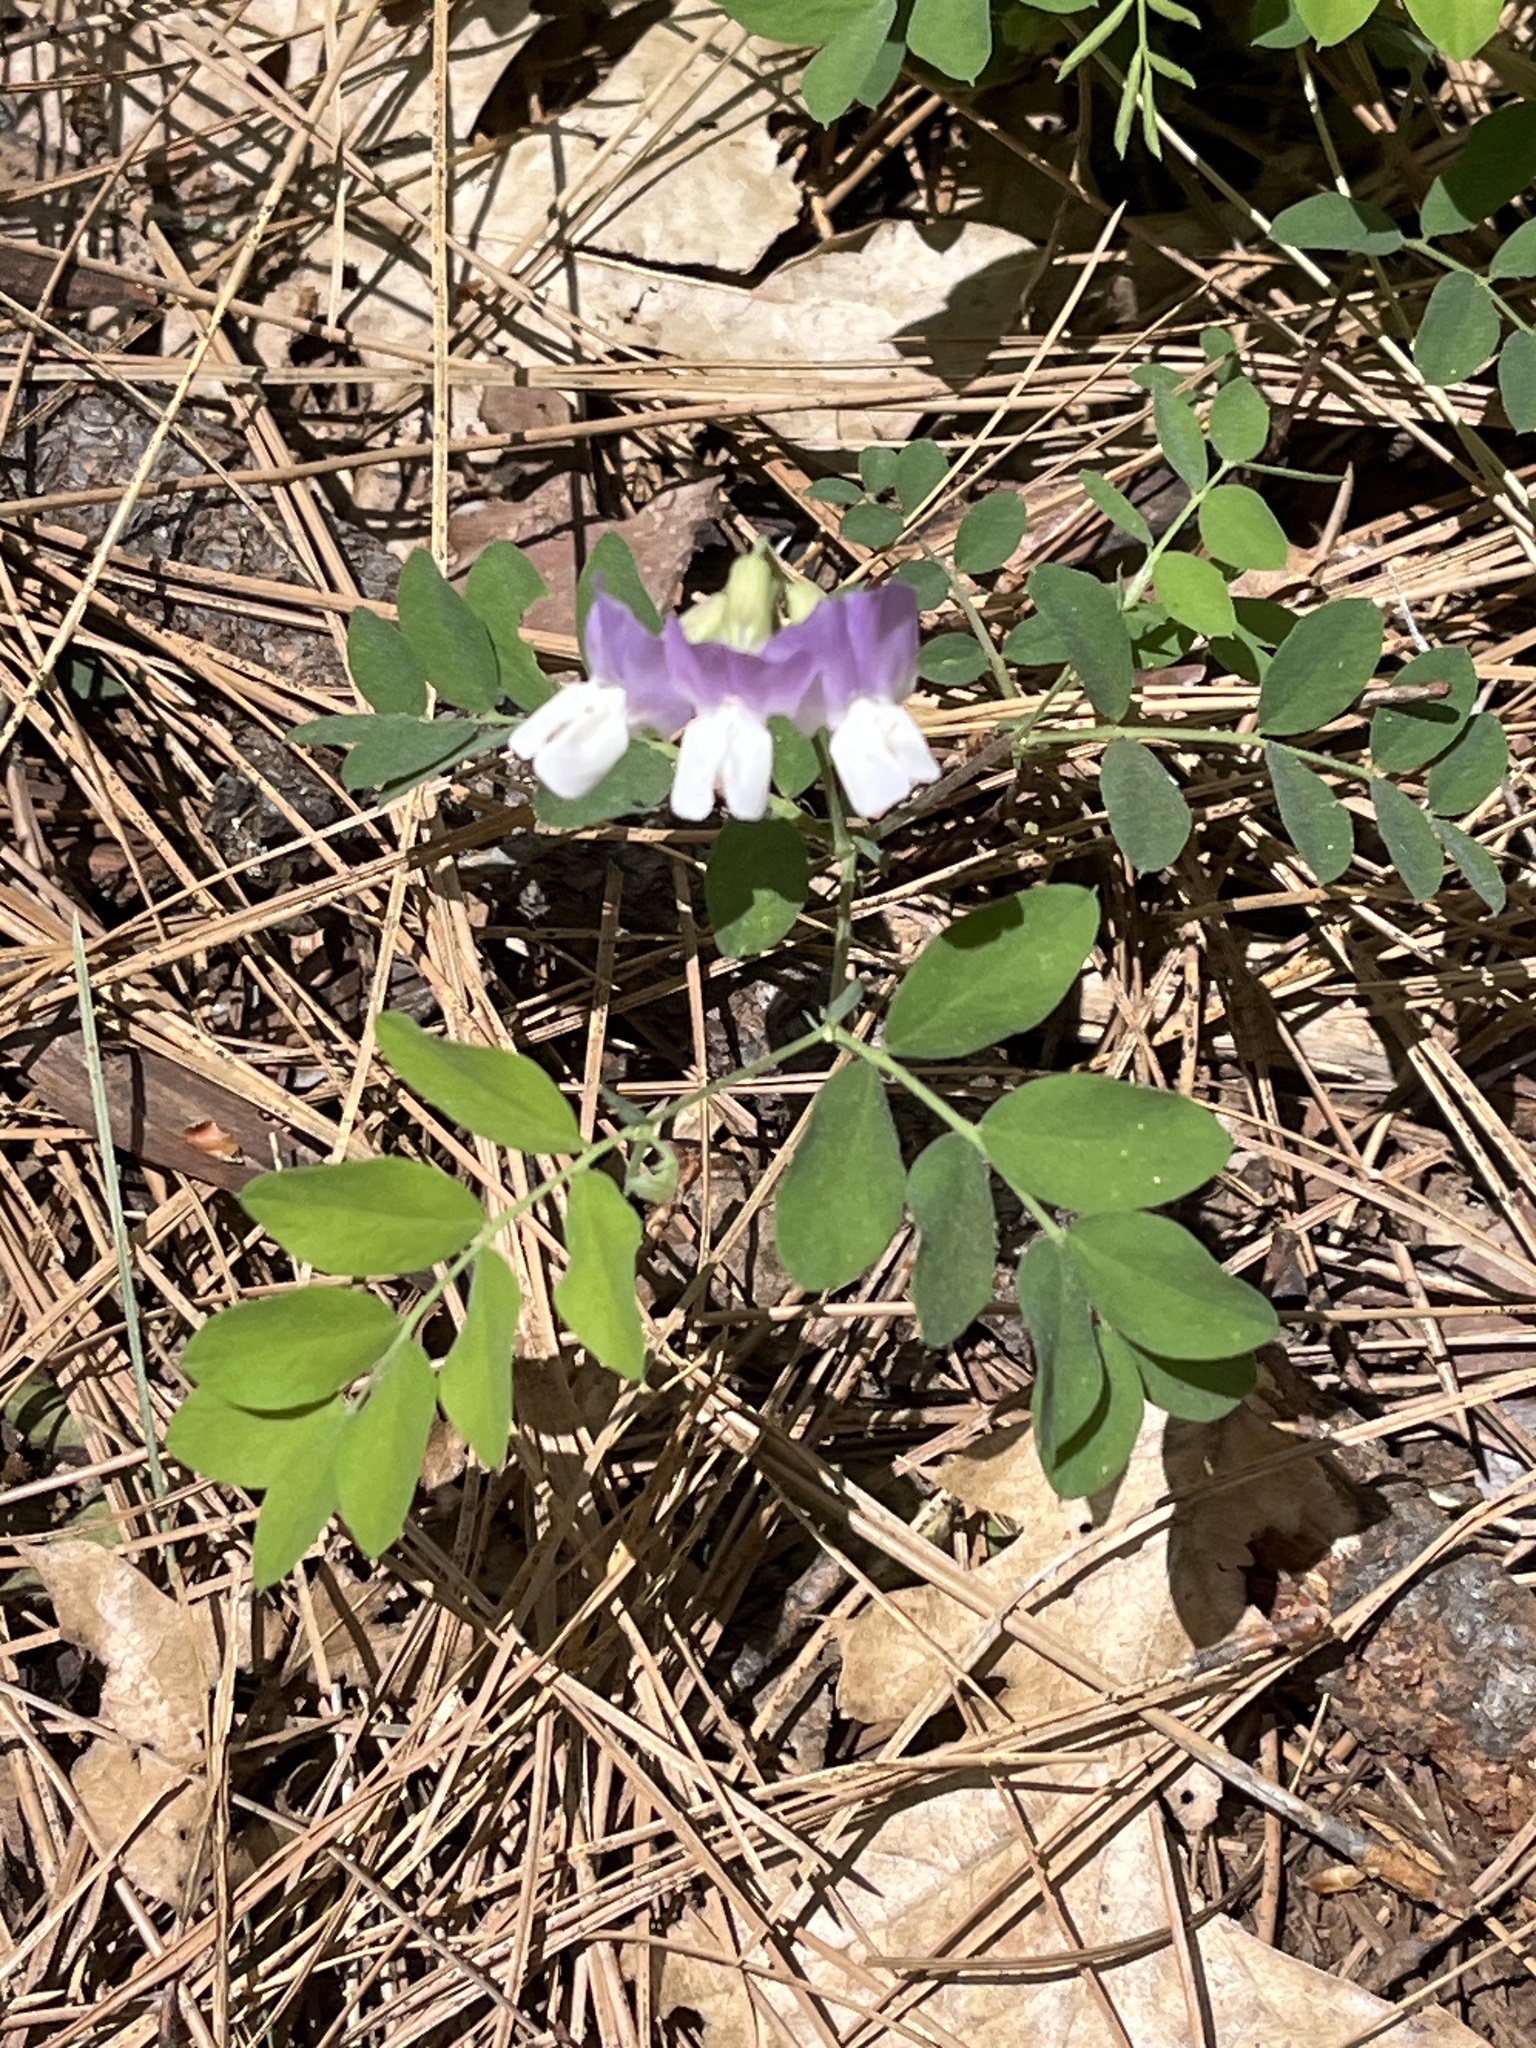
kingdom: Plantae
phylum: Tracheophyta
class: Magnoliopsida
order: Fabales
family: Fabaceae
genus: Lathyrus
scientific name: Lathyrus nevadensis
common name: Sierra nevada peavine
